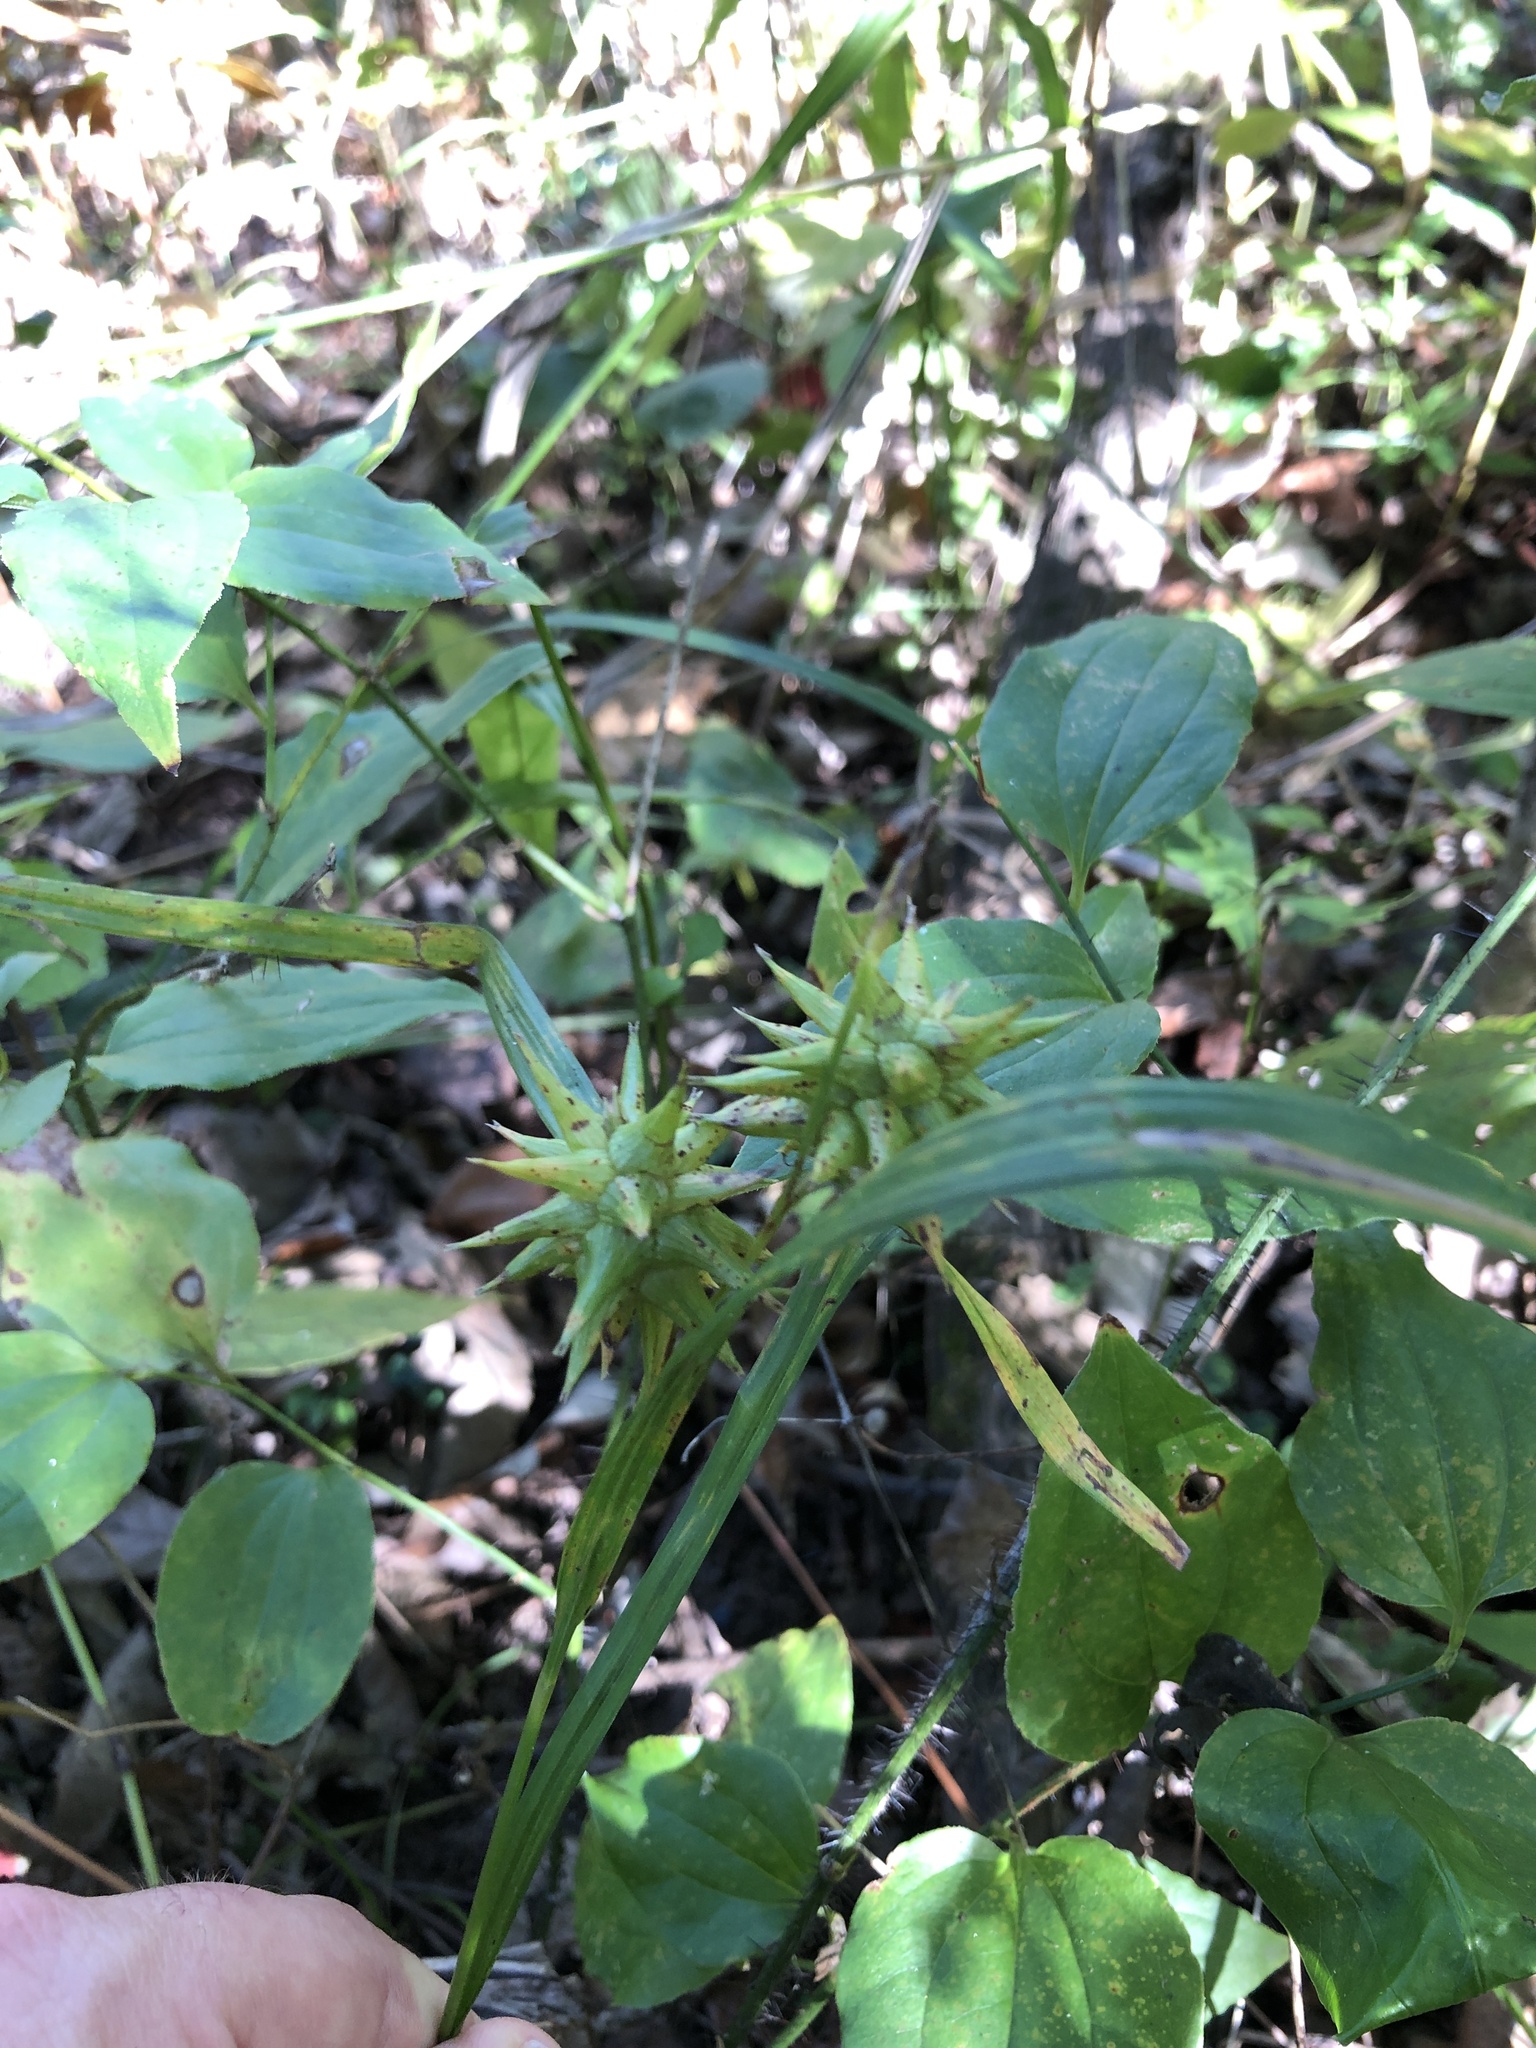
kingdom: Plantae
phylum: Tracheophyta
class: Liliopsida
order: Poales
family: Cyperaceae
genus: Carex
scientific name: Carex grayi
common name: Asa gray's sedge
